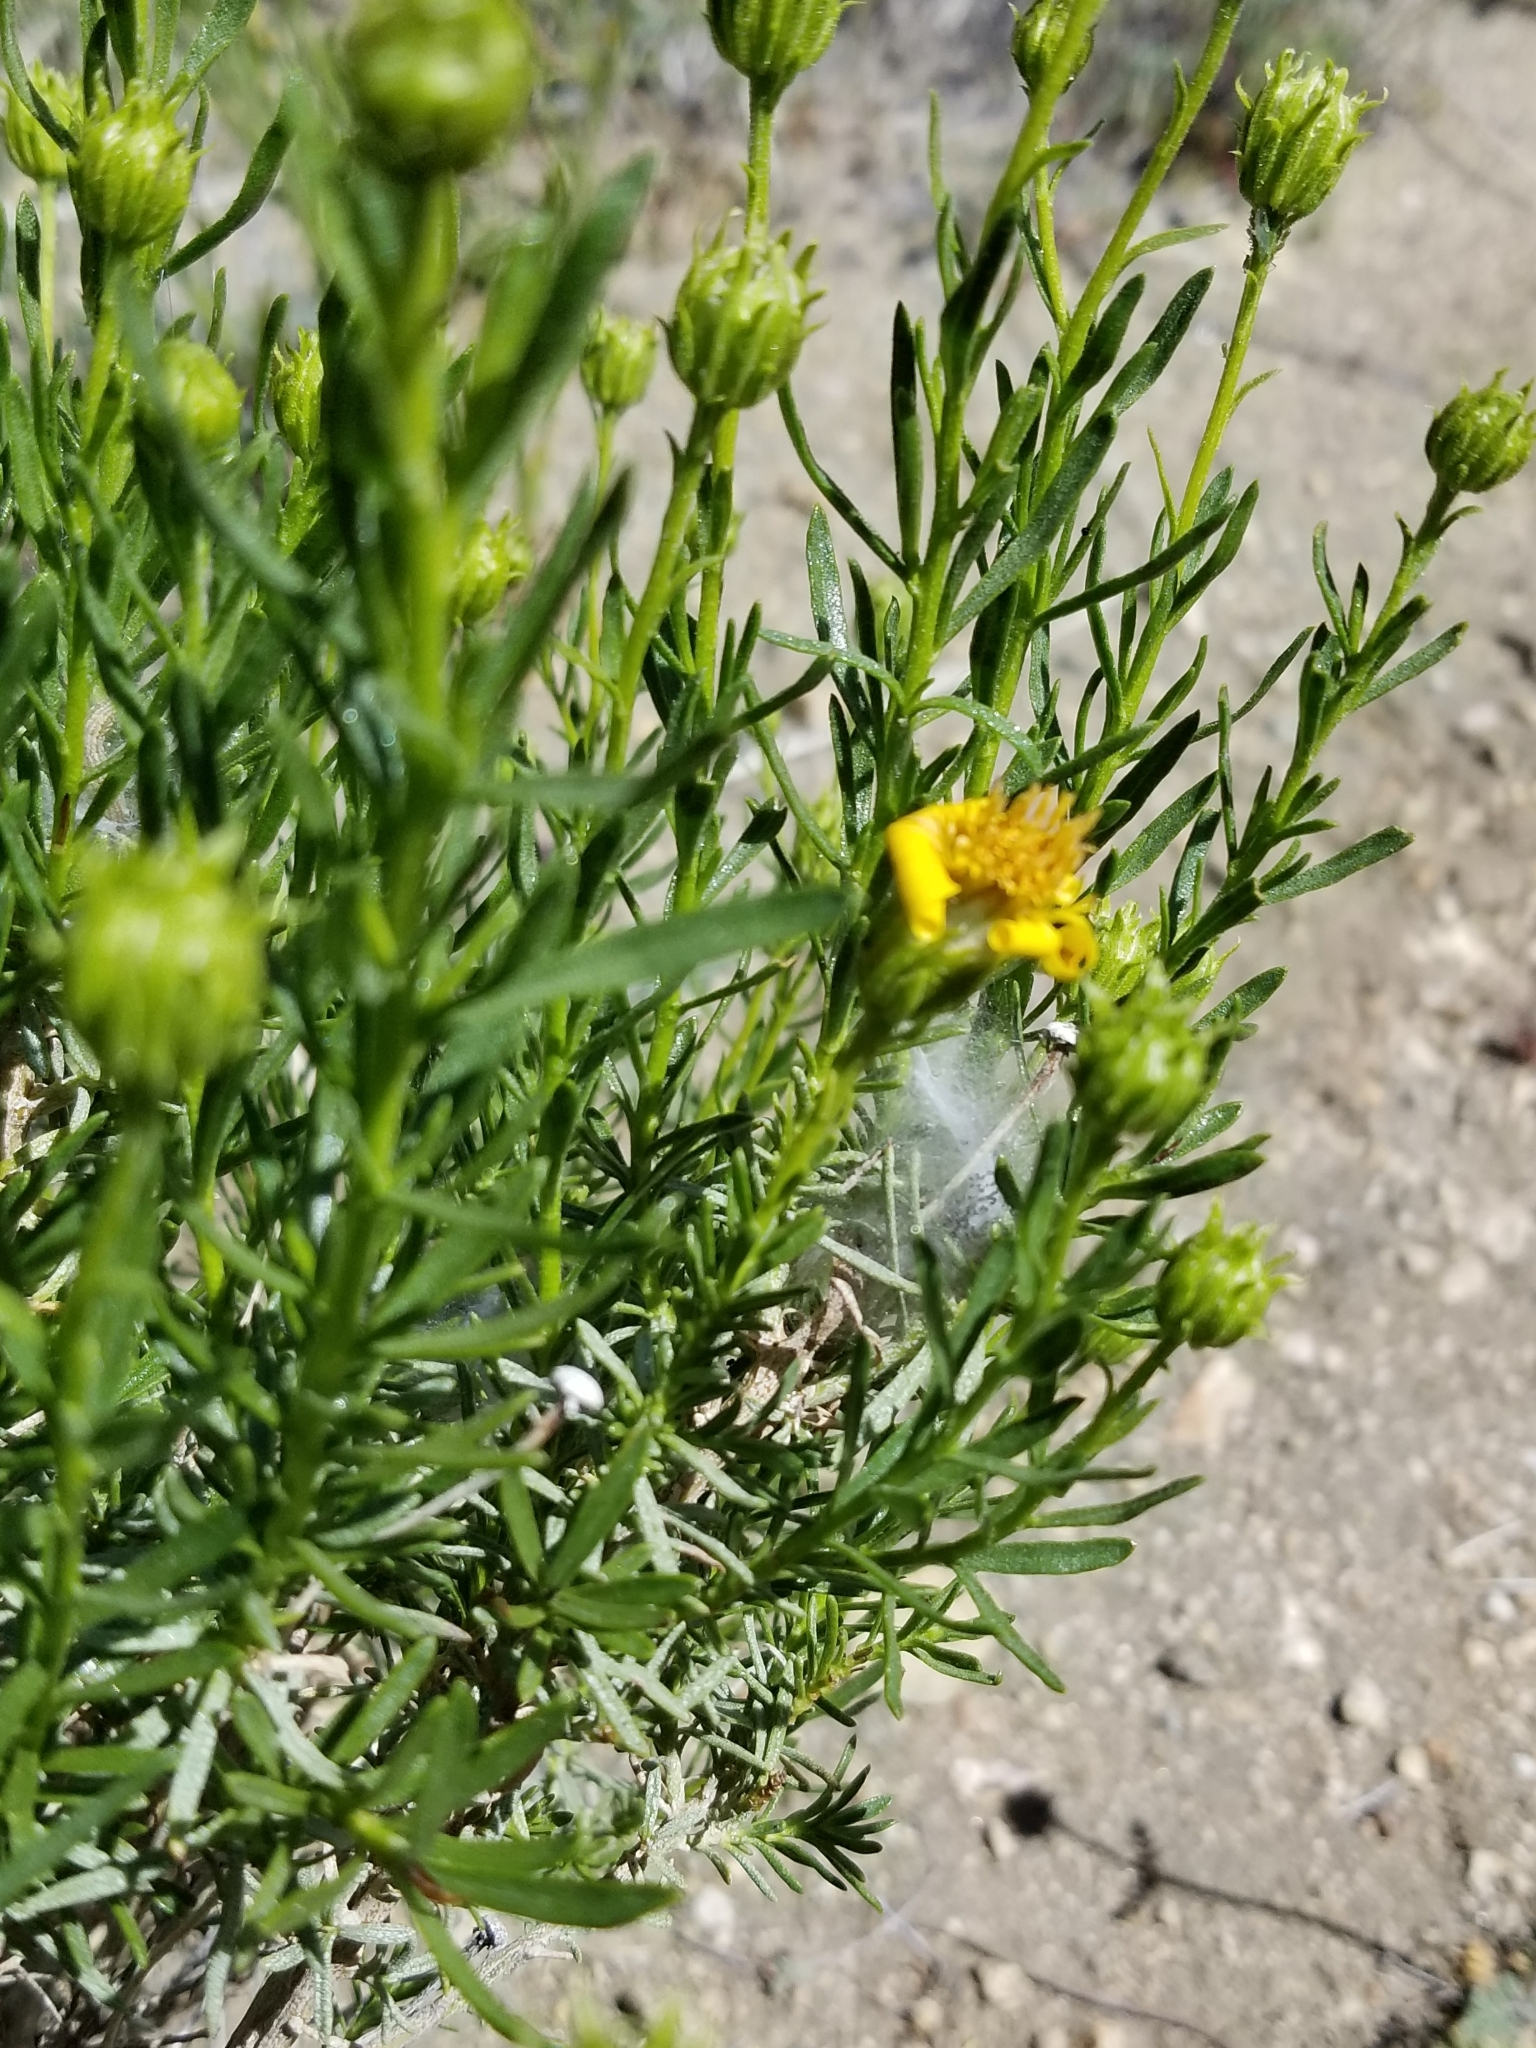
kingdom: Plantae
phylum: Tracheophyta
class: Magnoliopsida
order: Asterales
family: Asteraceae
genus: Ericameria
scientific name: Ericameria linearifolia
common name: Interior goldenbush
